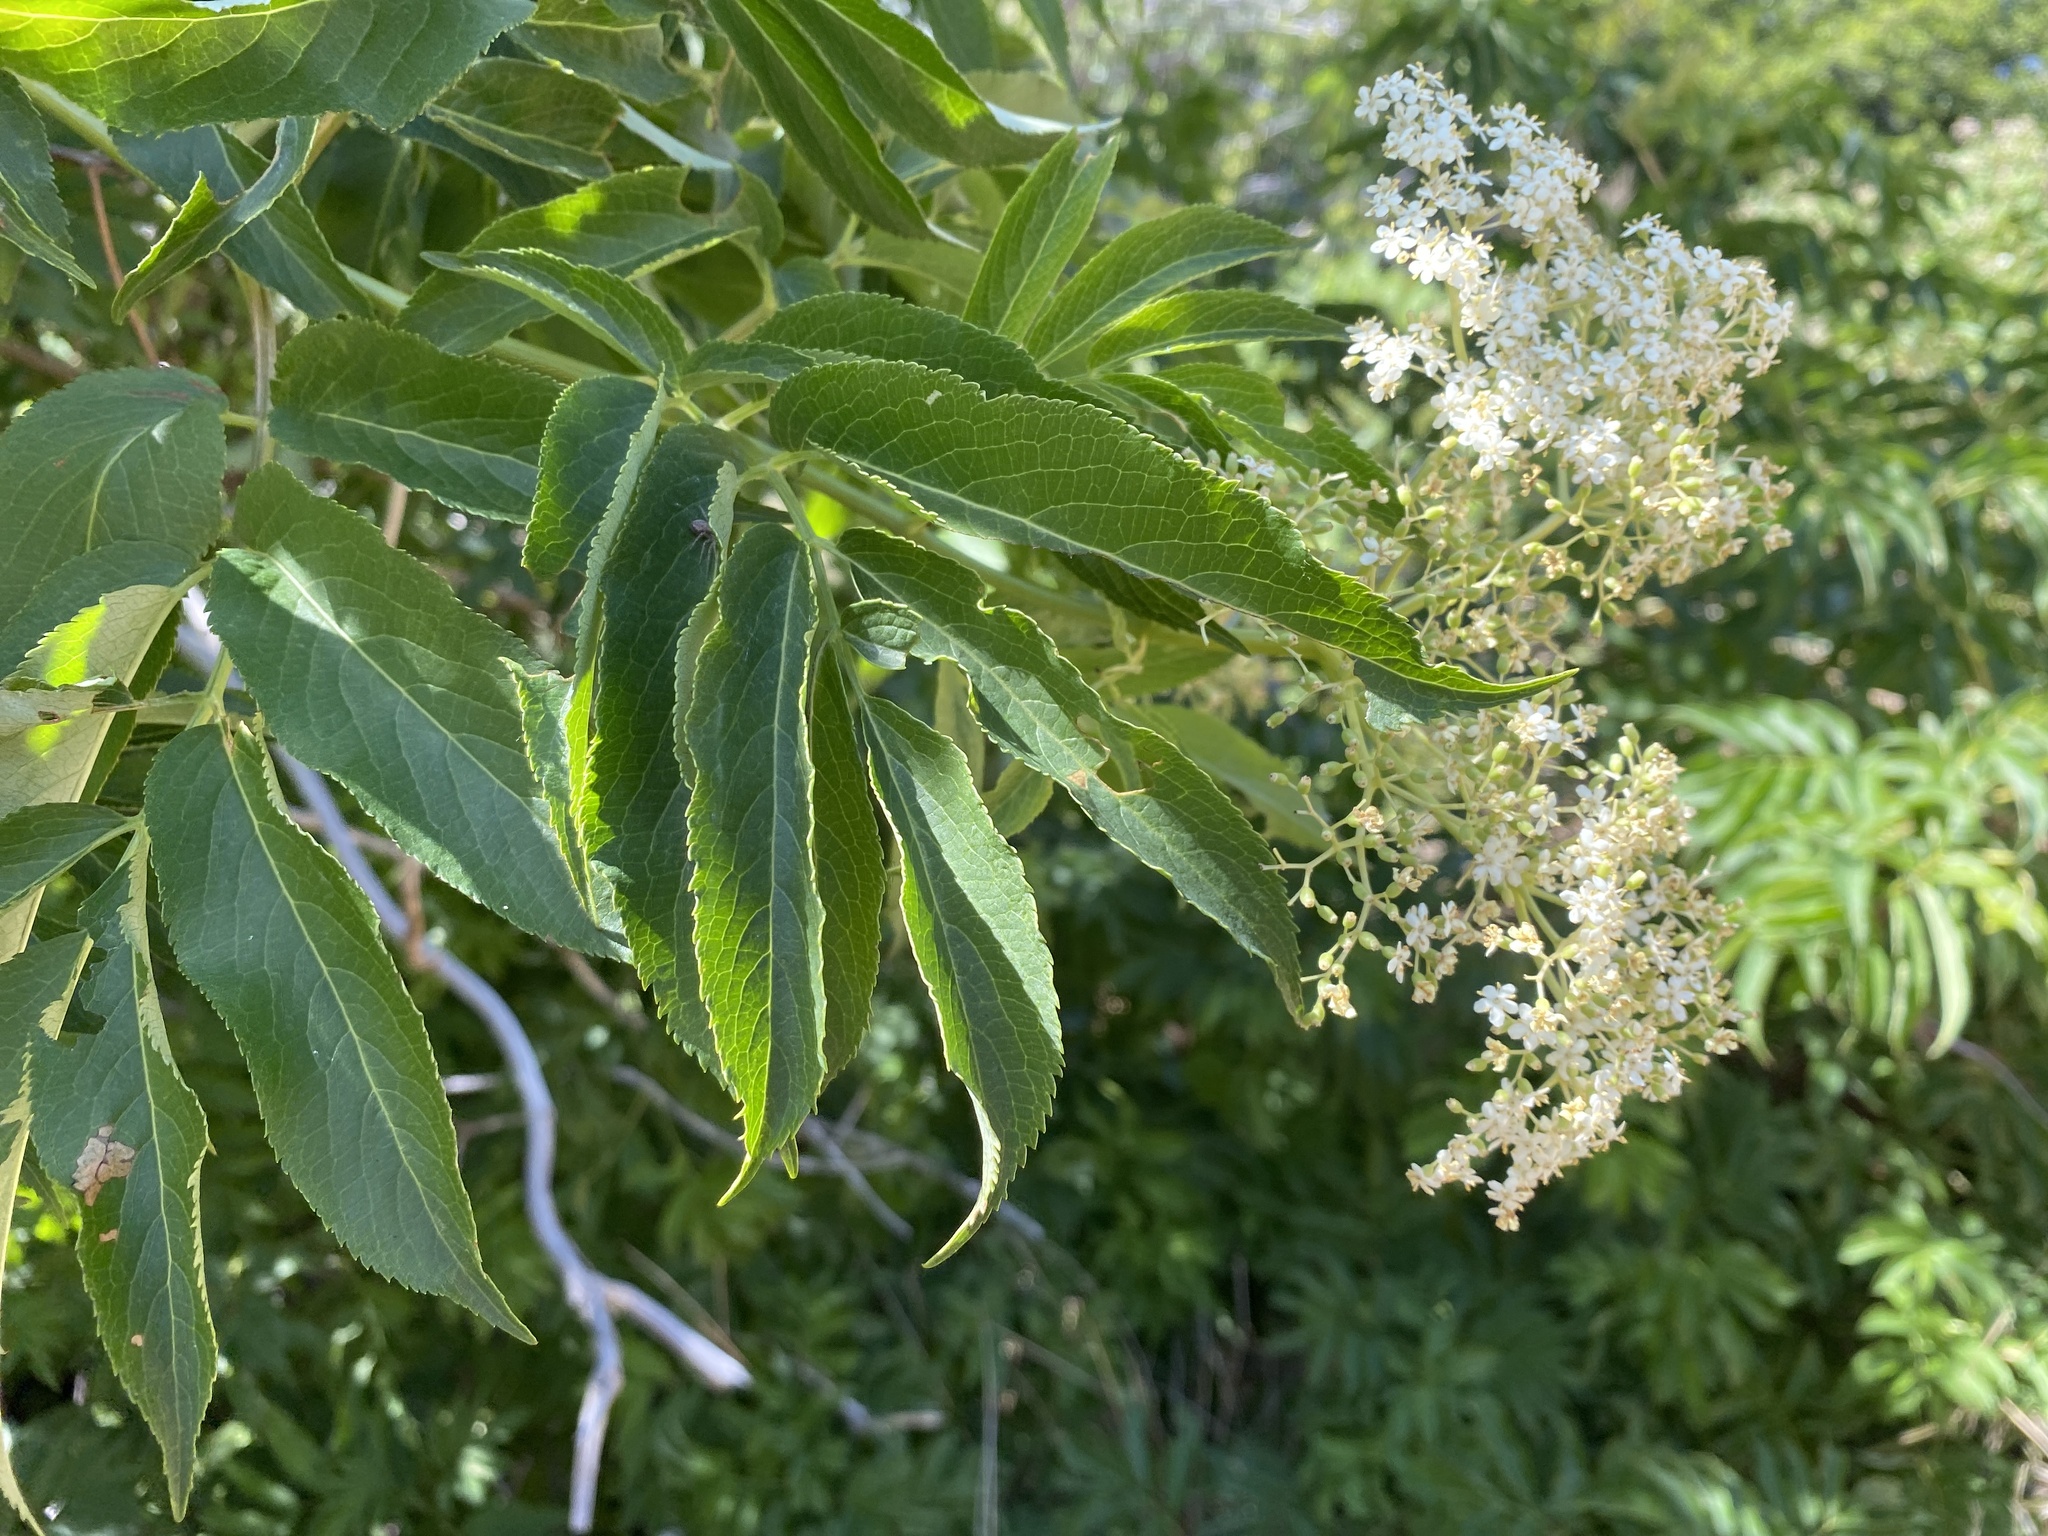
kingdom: Plantae
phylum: Tracheophyta
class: Magnoliopsida
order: Dipsacales
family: Viburnaceae
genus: Sambucus
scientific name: Sambucus cerulea
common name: Blue elder
